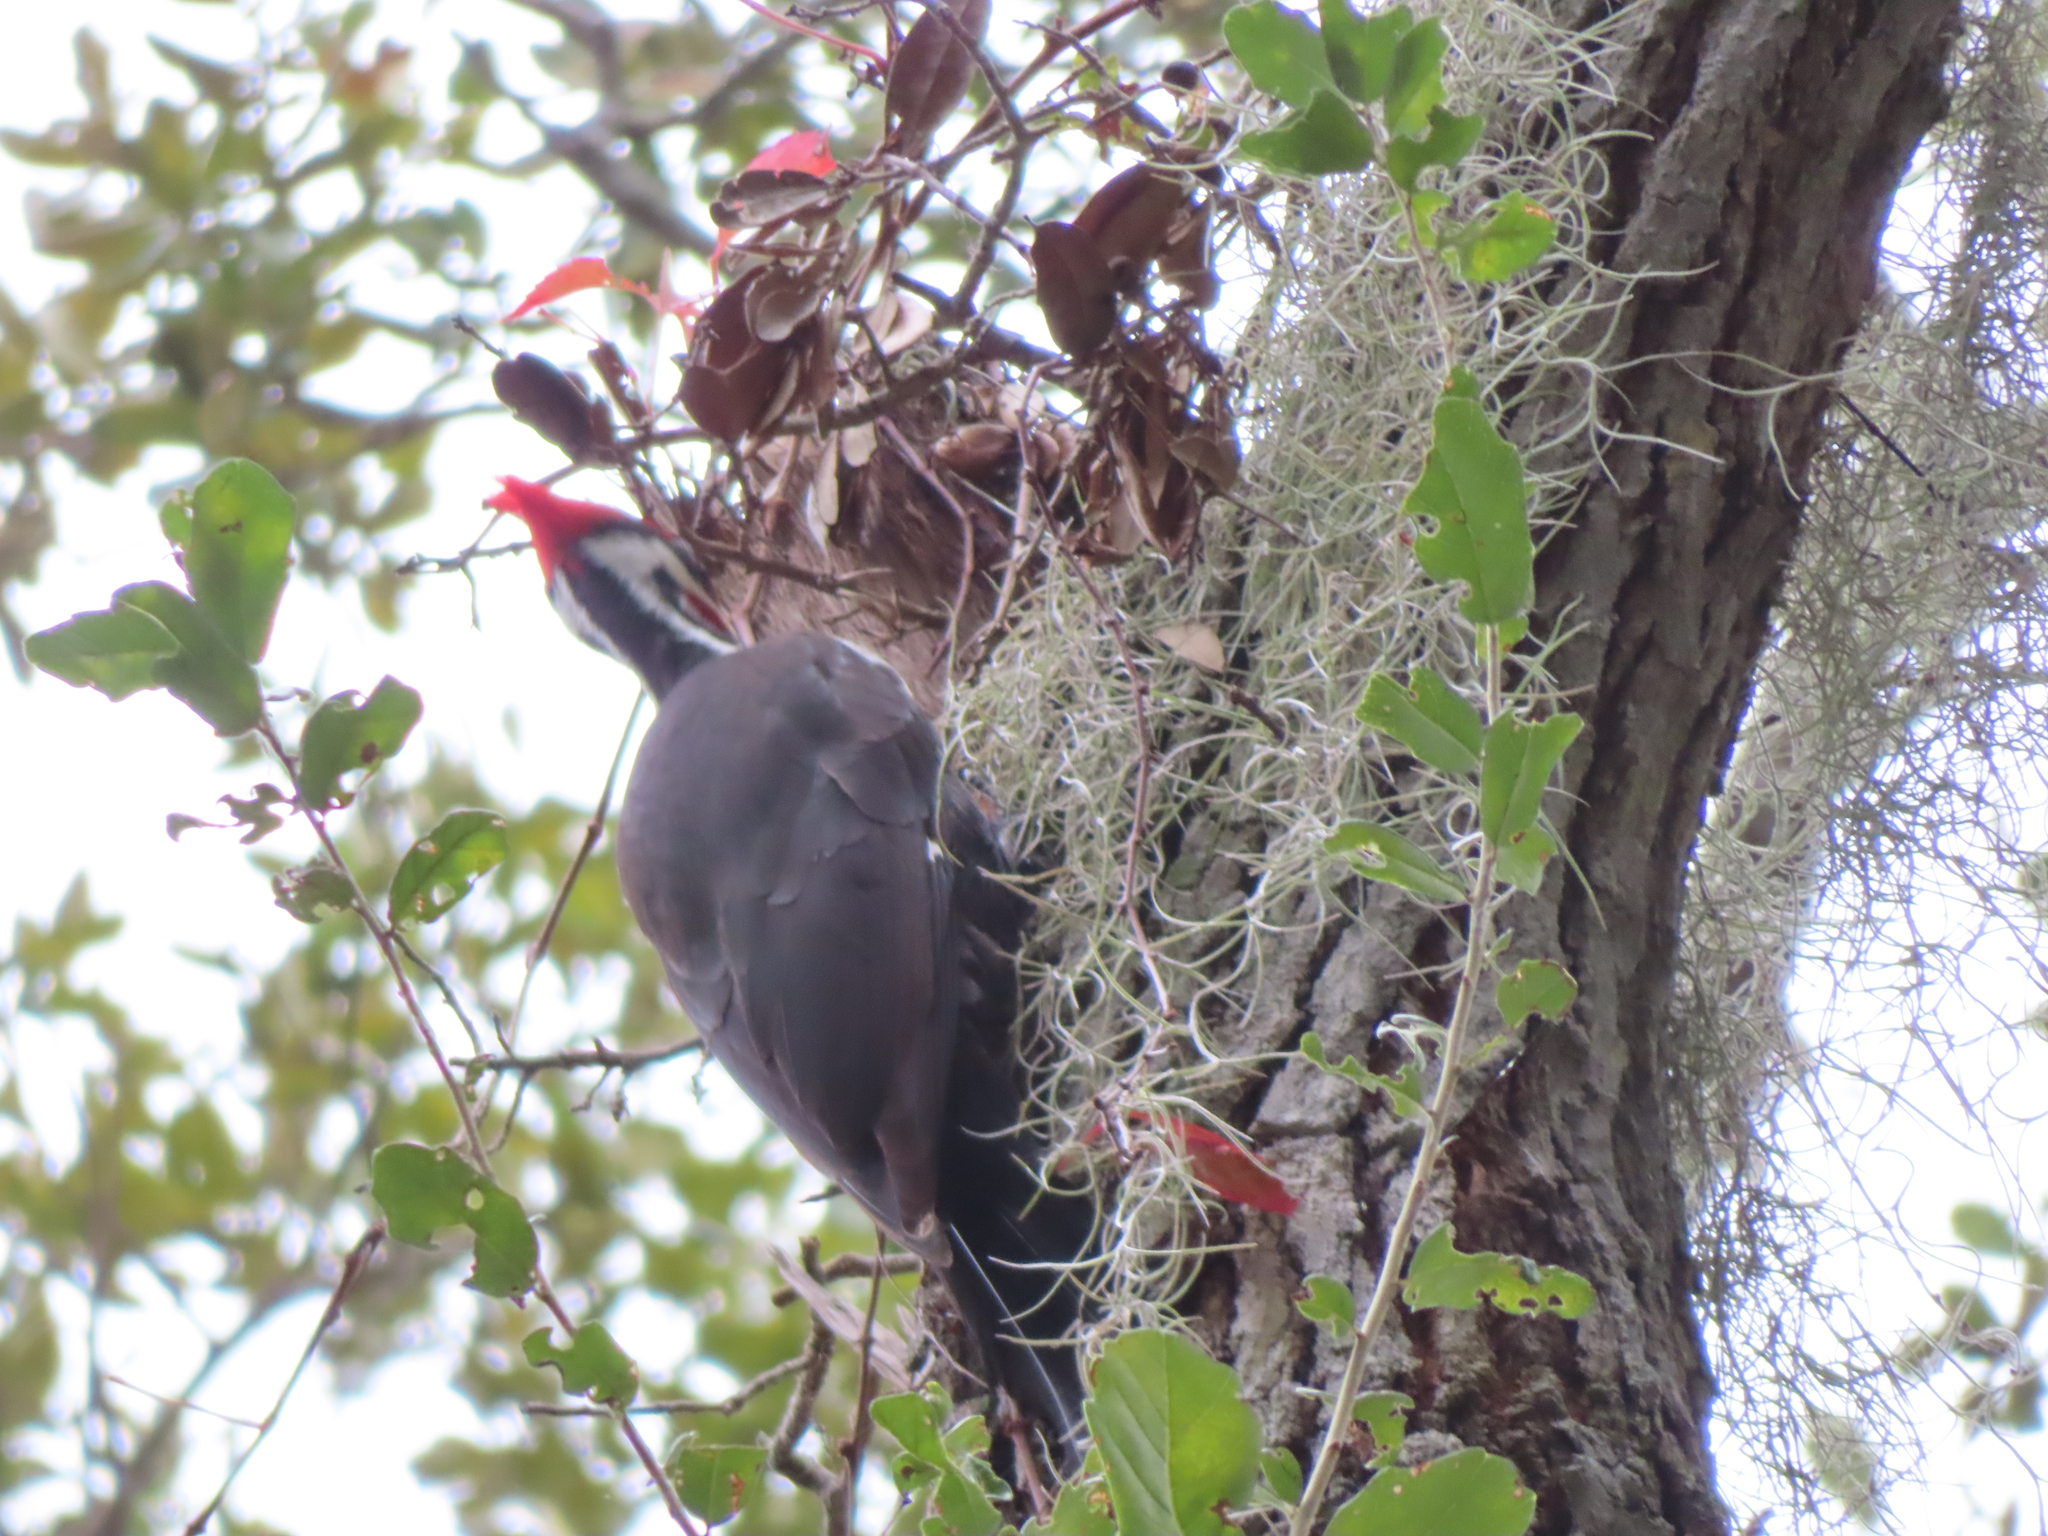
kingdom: Animalia
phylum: Chordata
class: Aves
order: Piciformes
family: Picidae
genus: Dryocopus
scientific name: Dryocopus pileatus
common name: Pileated woodpecker
